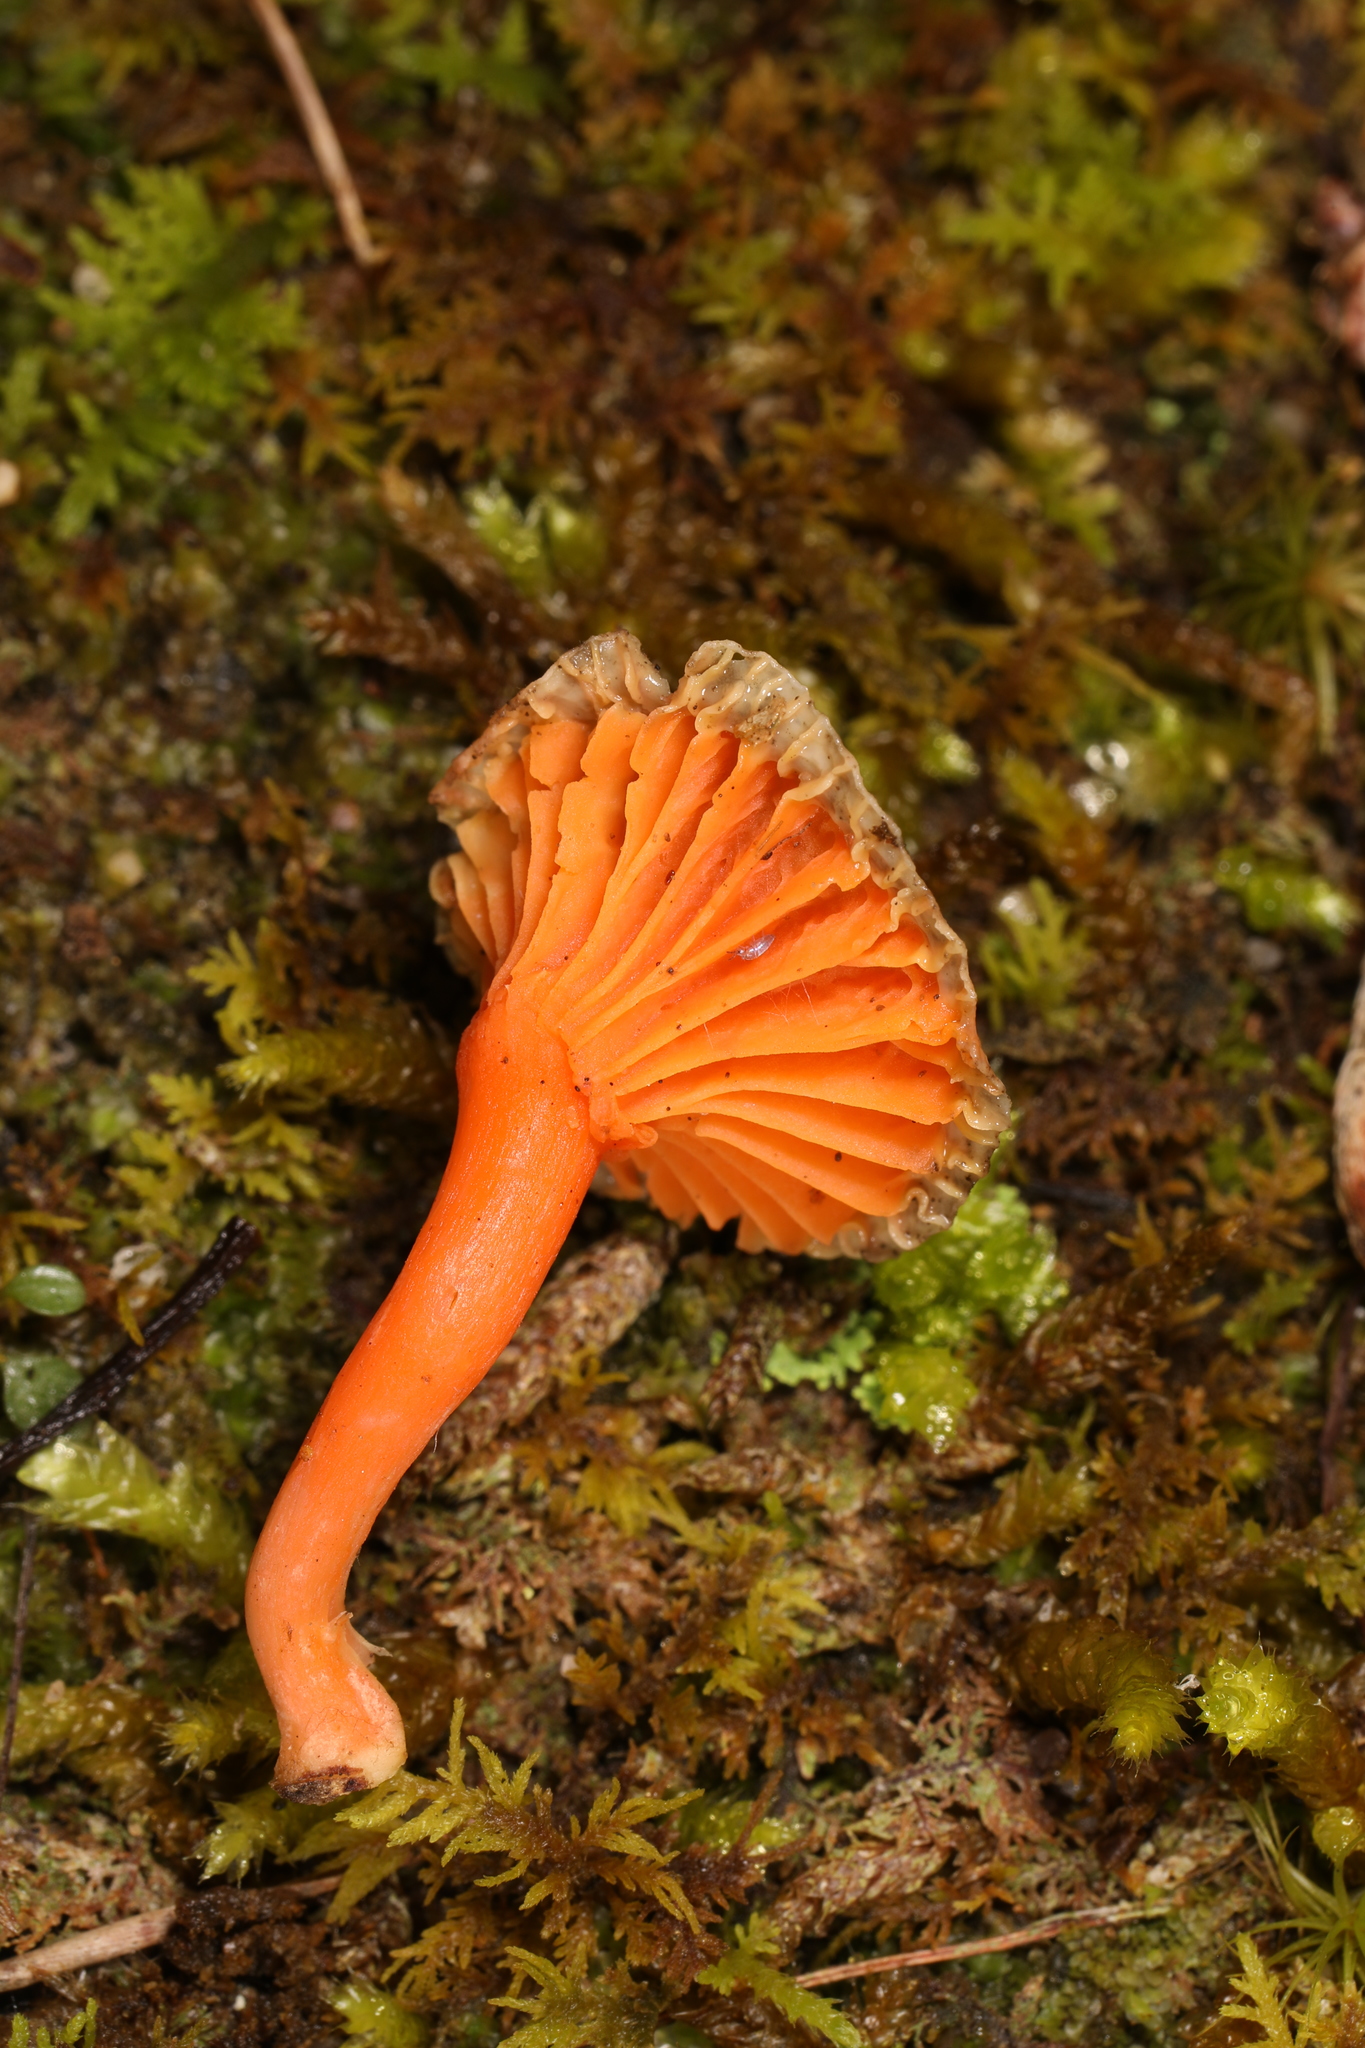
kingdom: Fungi
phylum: Basidiomycota
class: Agaricomycetes
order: Cantharellales
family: Hydnaceae
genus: Cantharellus
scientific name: Cantharellus cinnabarinus
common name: Cinnabar chanterelle
